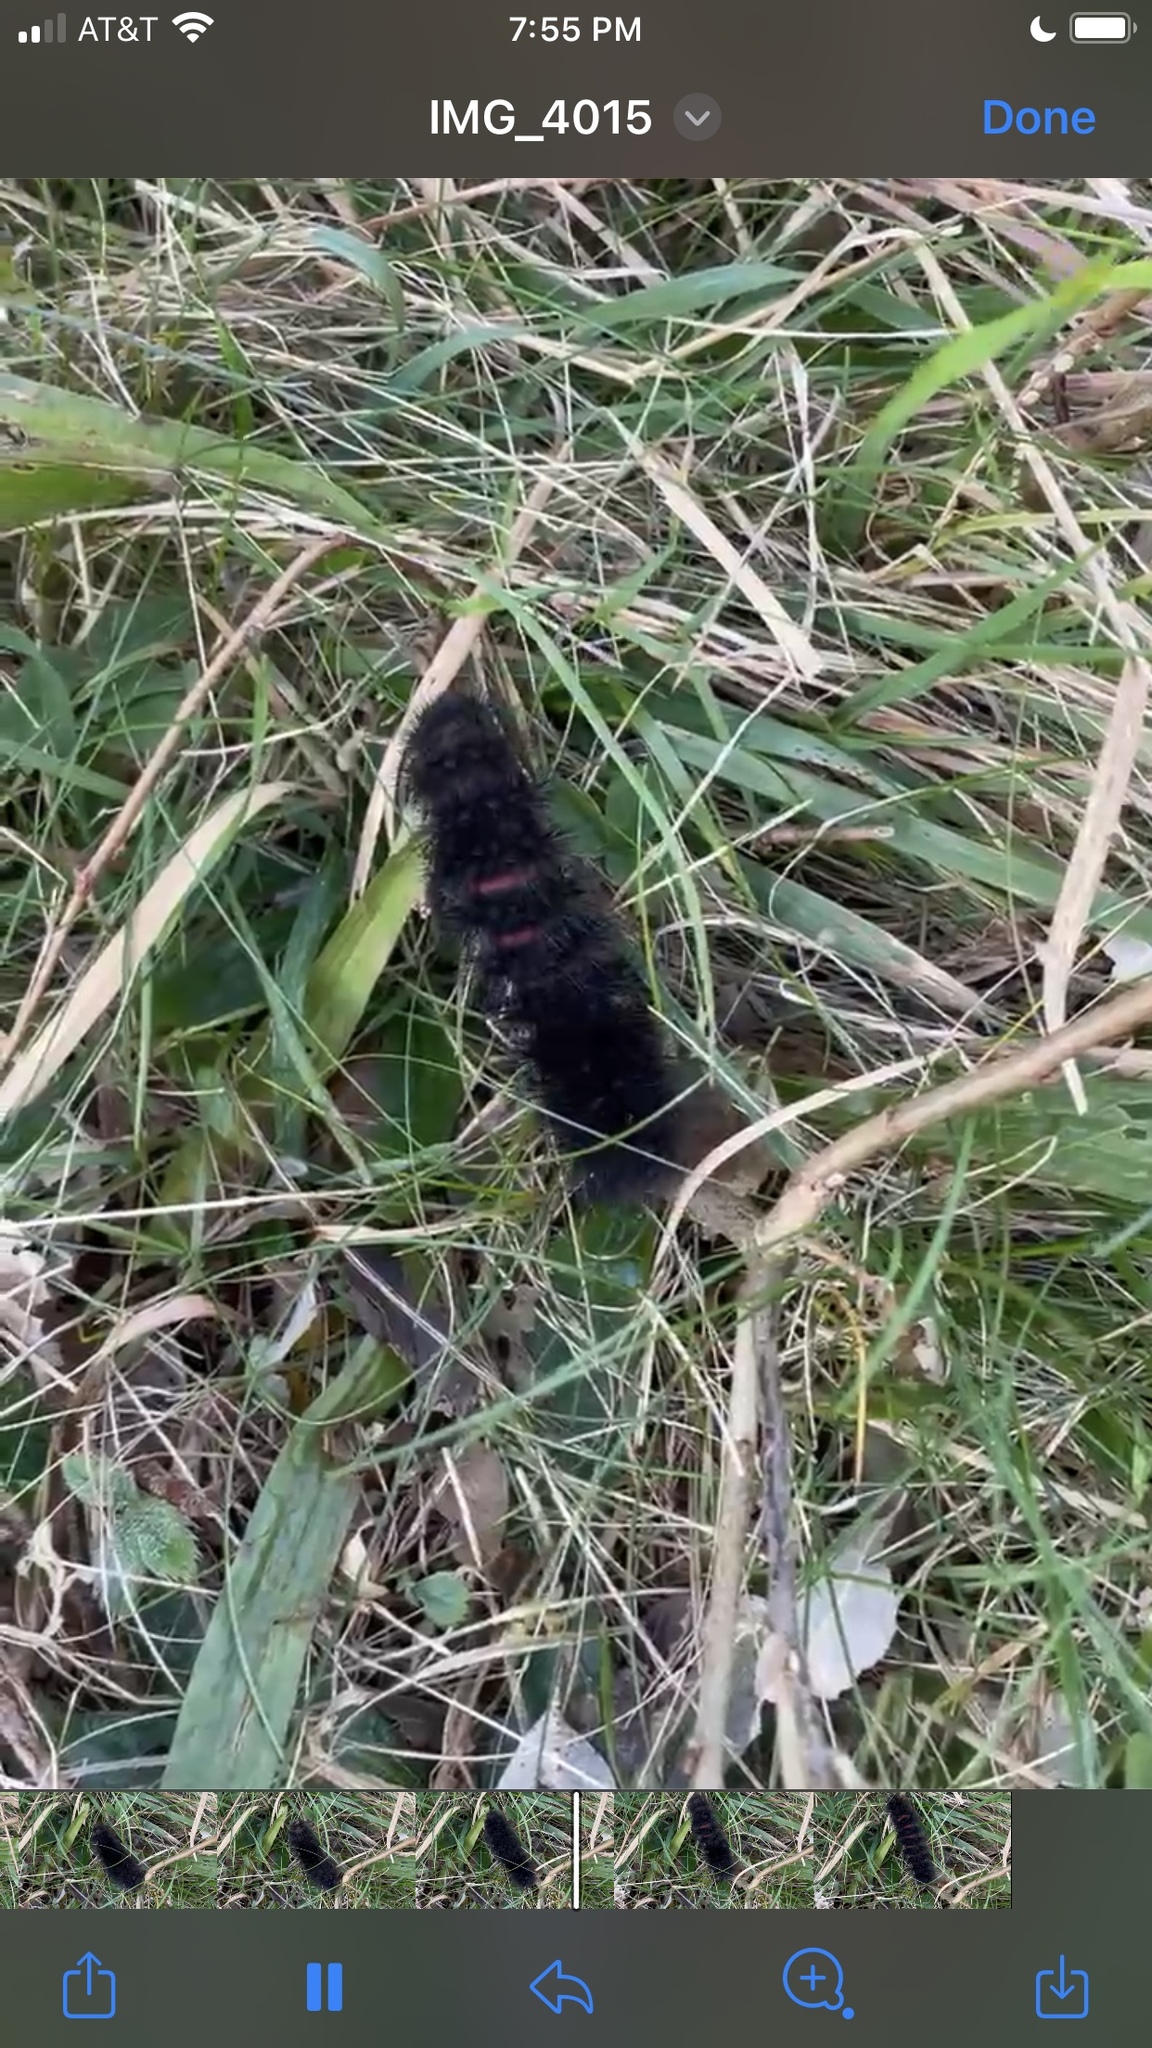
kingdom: Animalia
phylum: Arthropoda
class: Insecta
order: Lepidoptera
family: Erebidae
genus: Hypercompe
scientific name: Hypercompe scribonia
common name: Giant leopard moth
